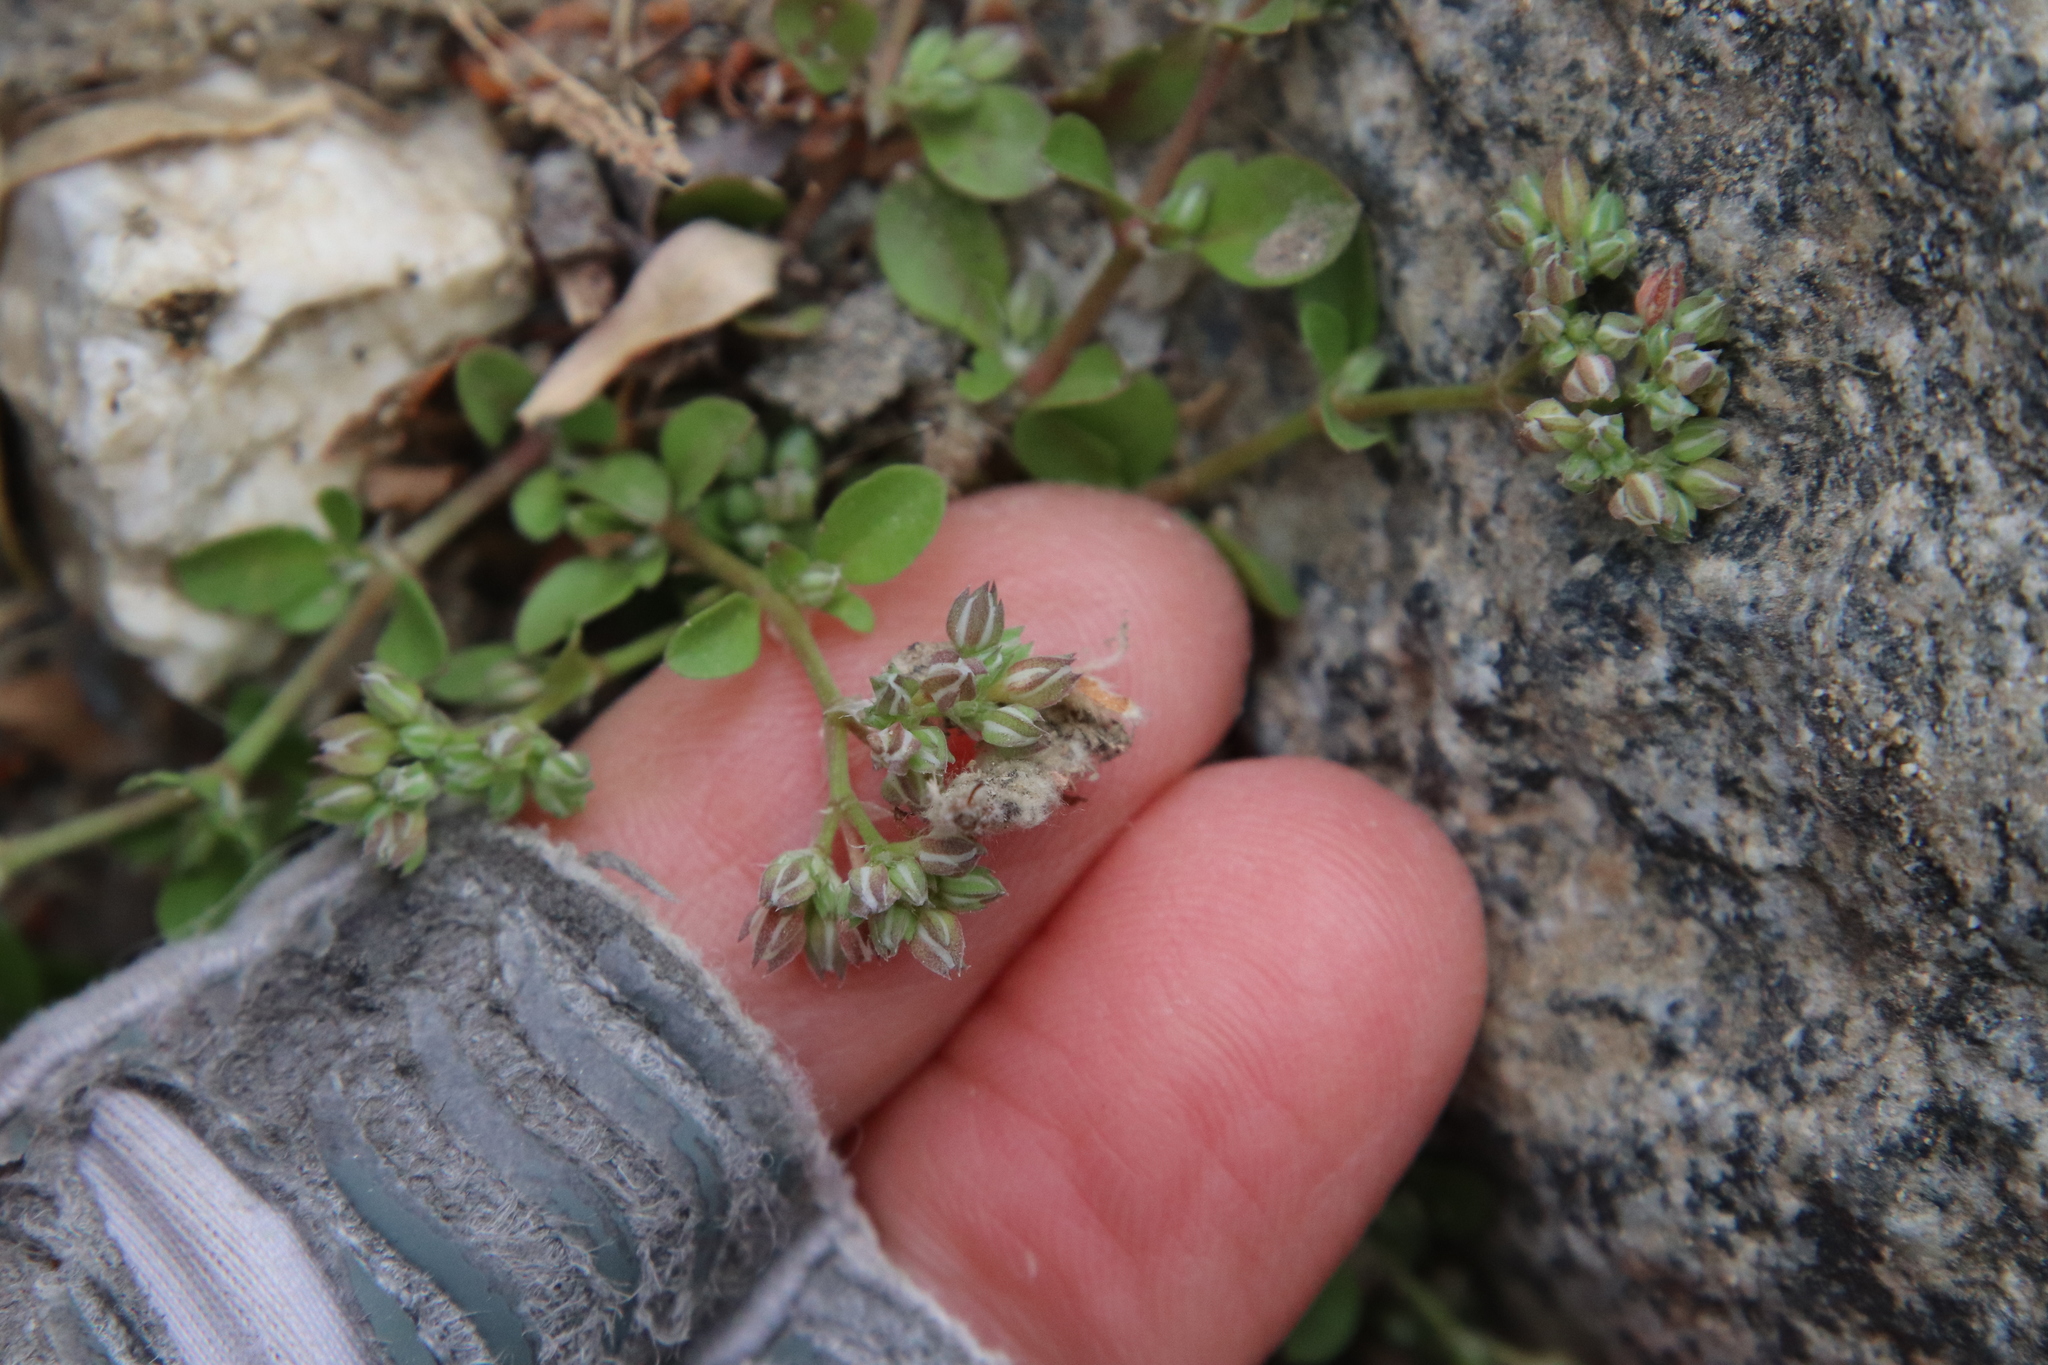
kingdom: Plantae
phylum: Tracheophyta
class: Magnoliopsida
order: Caryophyllales
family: Caryophyllaceae
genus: Polycarpon
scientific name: Polycarpon tetraphyllum
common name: Four-leaved all-seed
